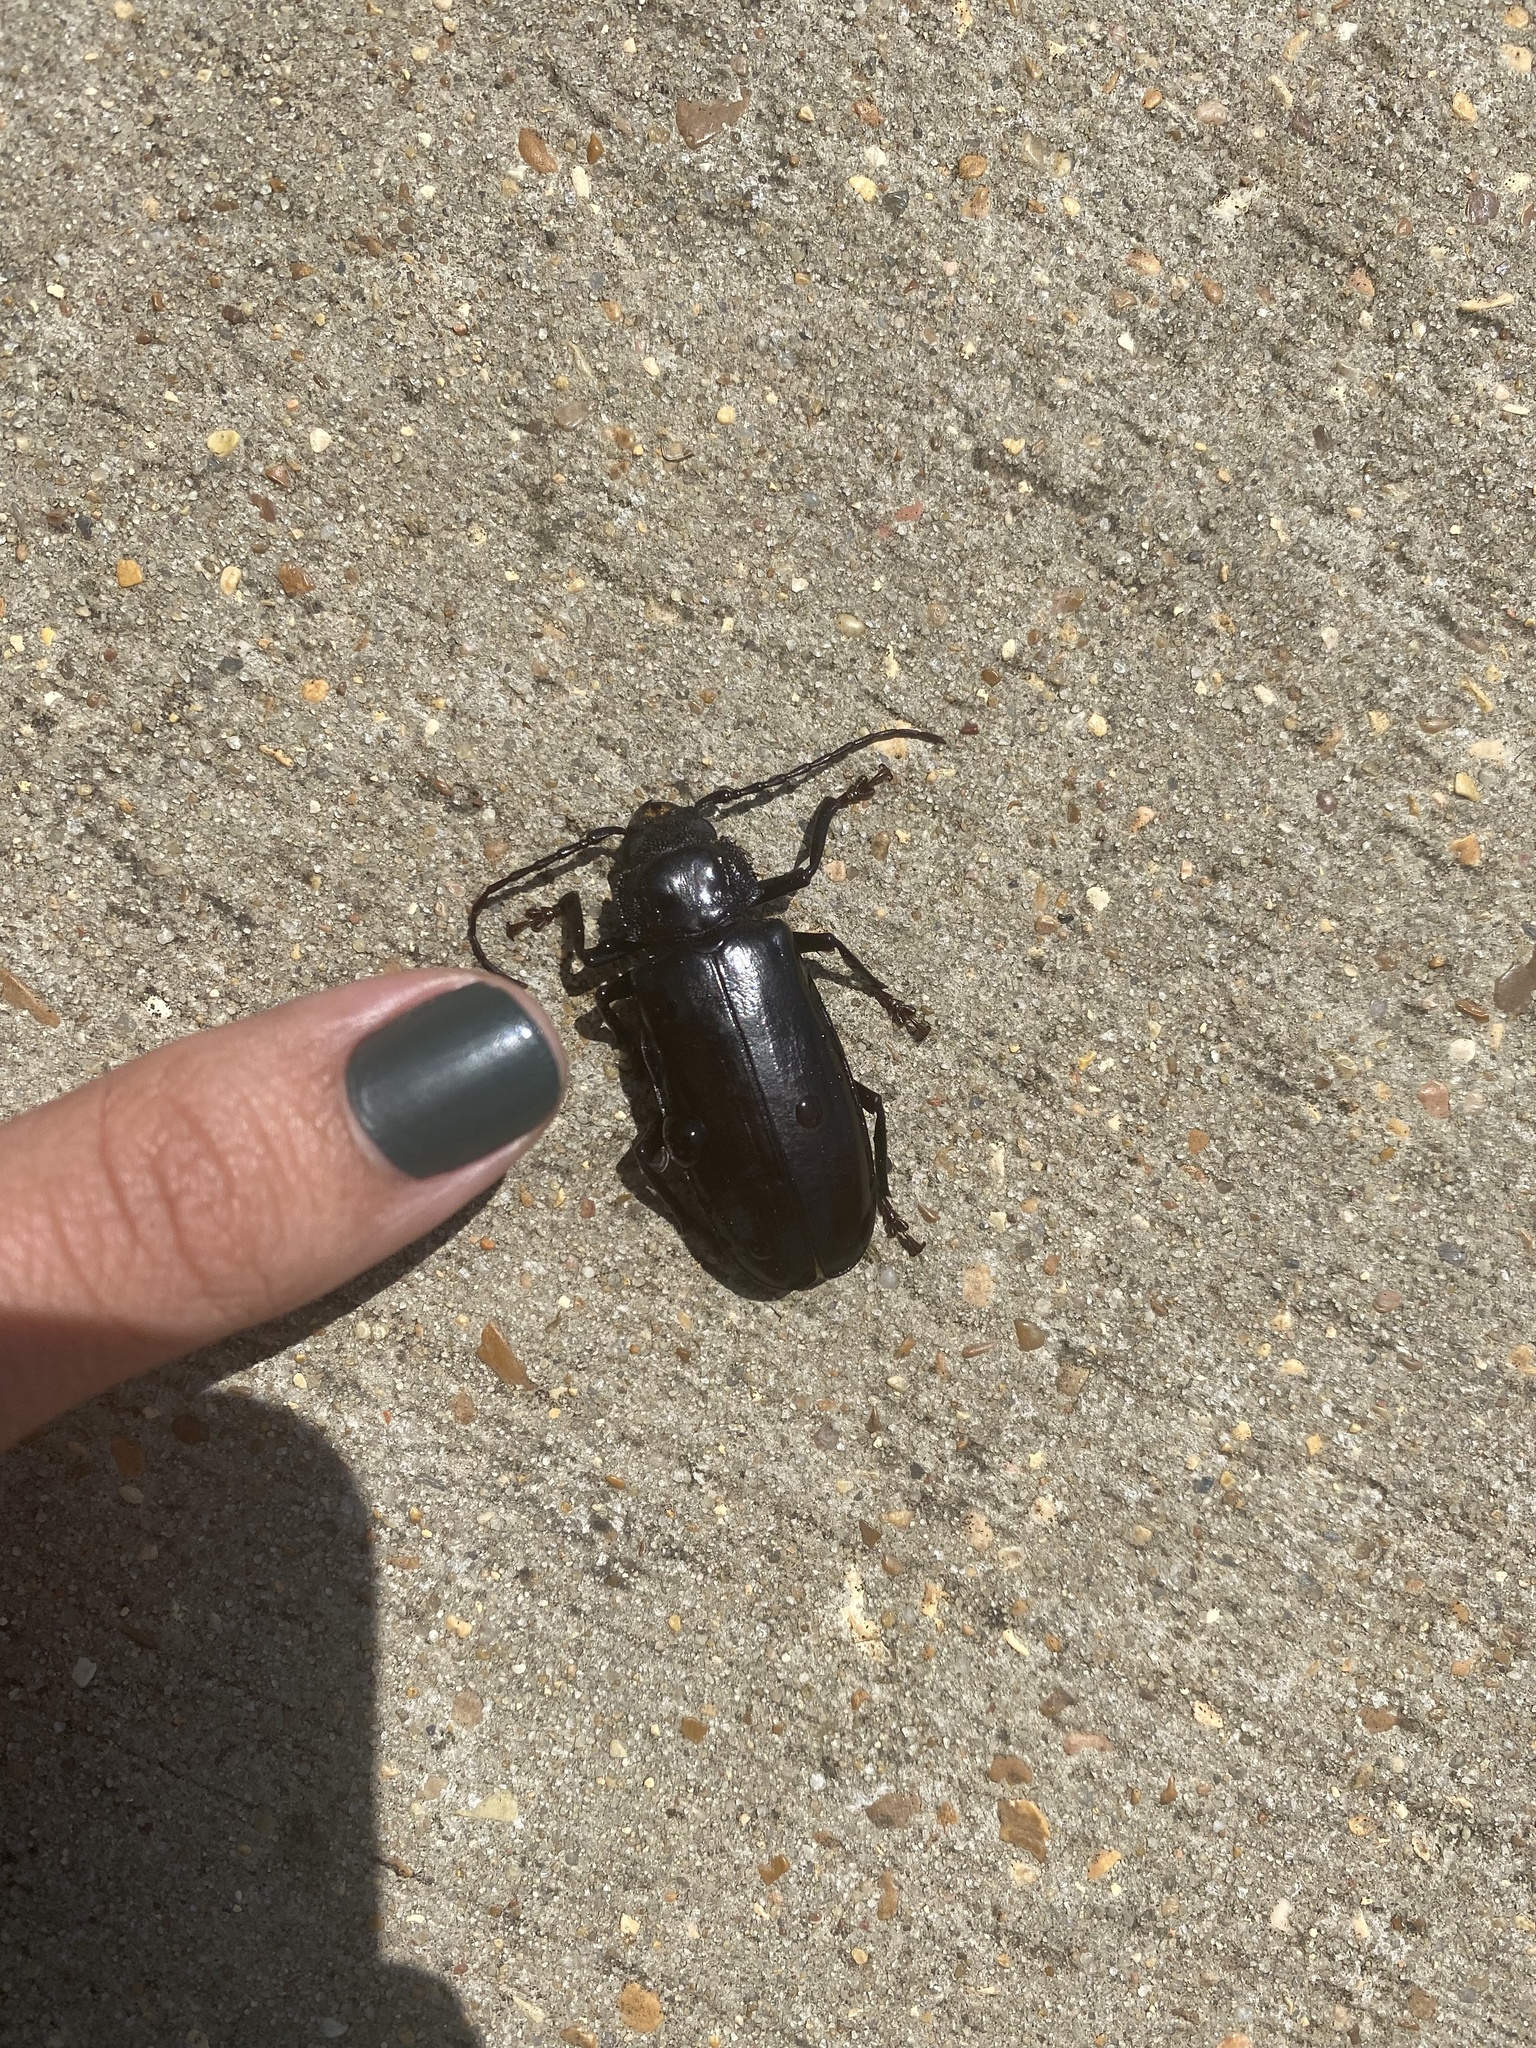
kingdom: Animalia
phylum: Arthropoda
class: Insecta
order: Coleoptera
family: Cerambycidae
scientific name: Cerambycidae
